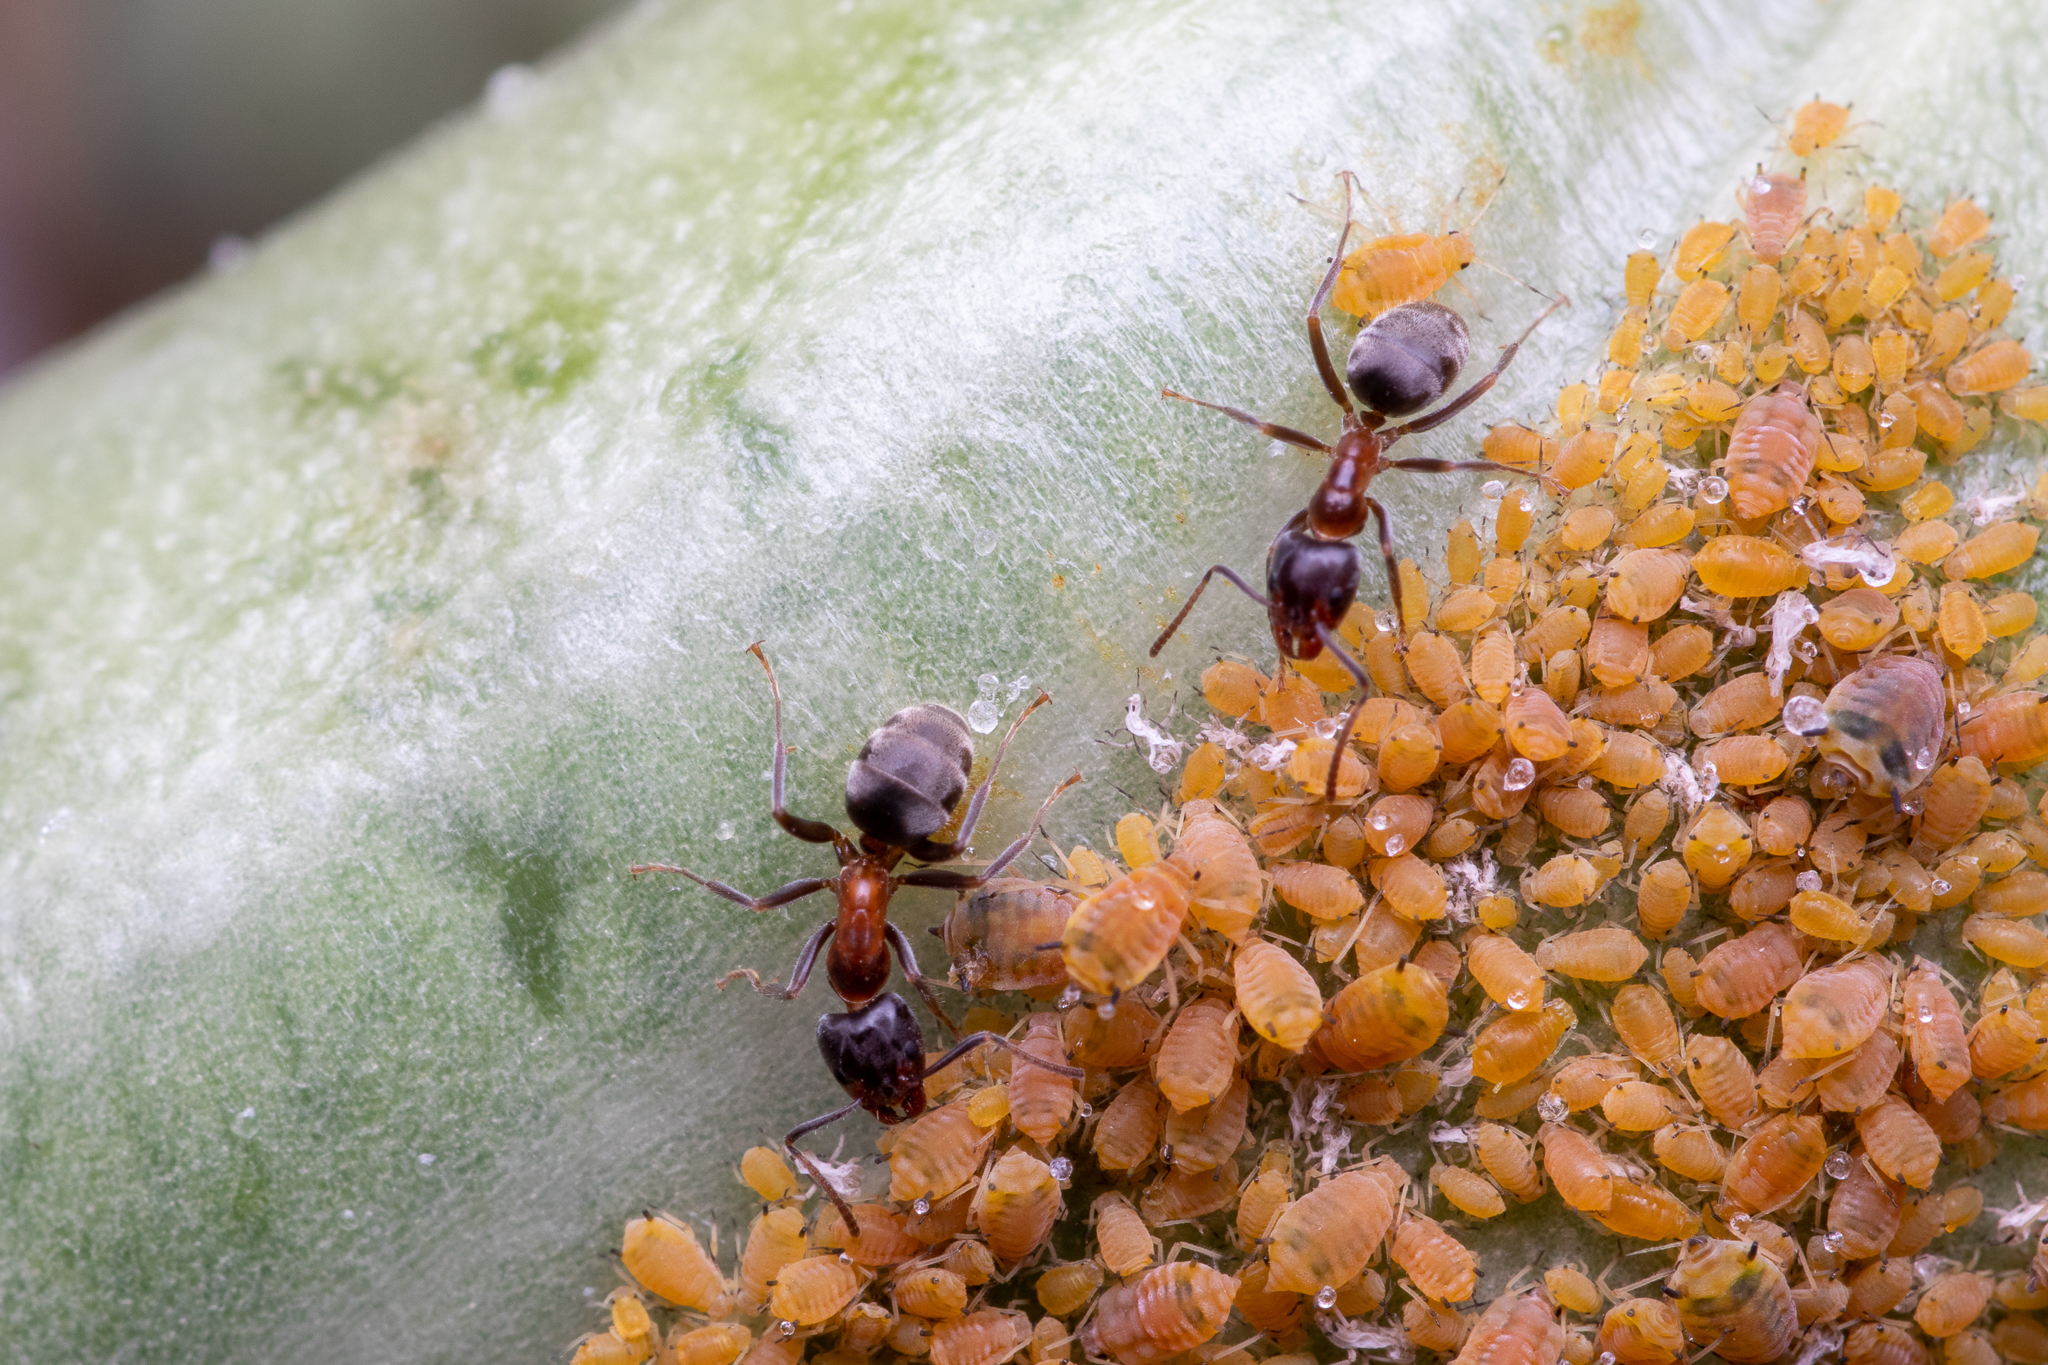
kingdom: Animalia
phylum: Arthropoda
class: Insecta
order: Hymenoptera
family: Formicidae
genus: Liometopum
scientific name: Liometopum occidentale
